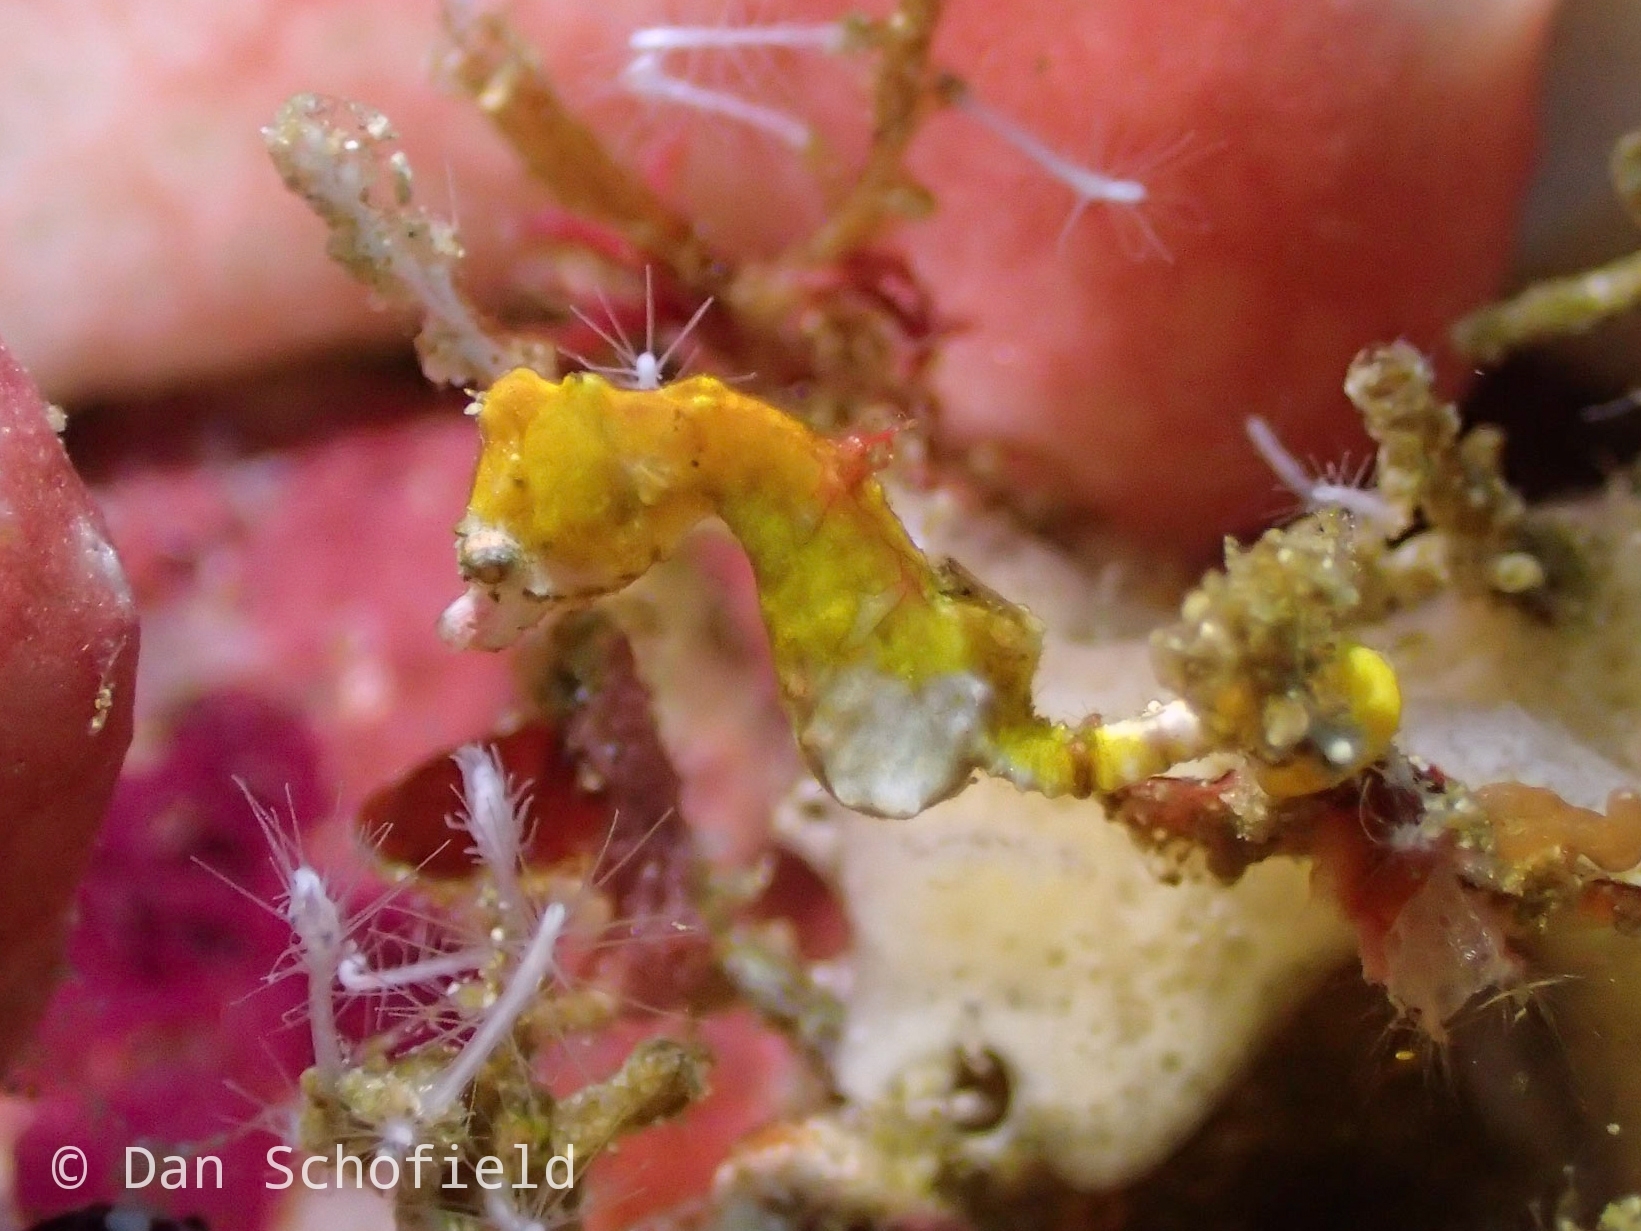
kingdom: Animalia
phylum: Chordata
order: Syngnathiformes
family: Syngnathidae
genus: Hippocampus
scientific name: Hippocampus pontohi
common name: Pontoh`s pygmy seahorse
